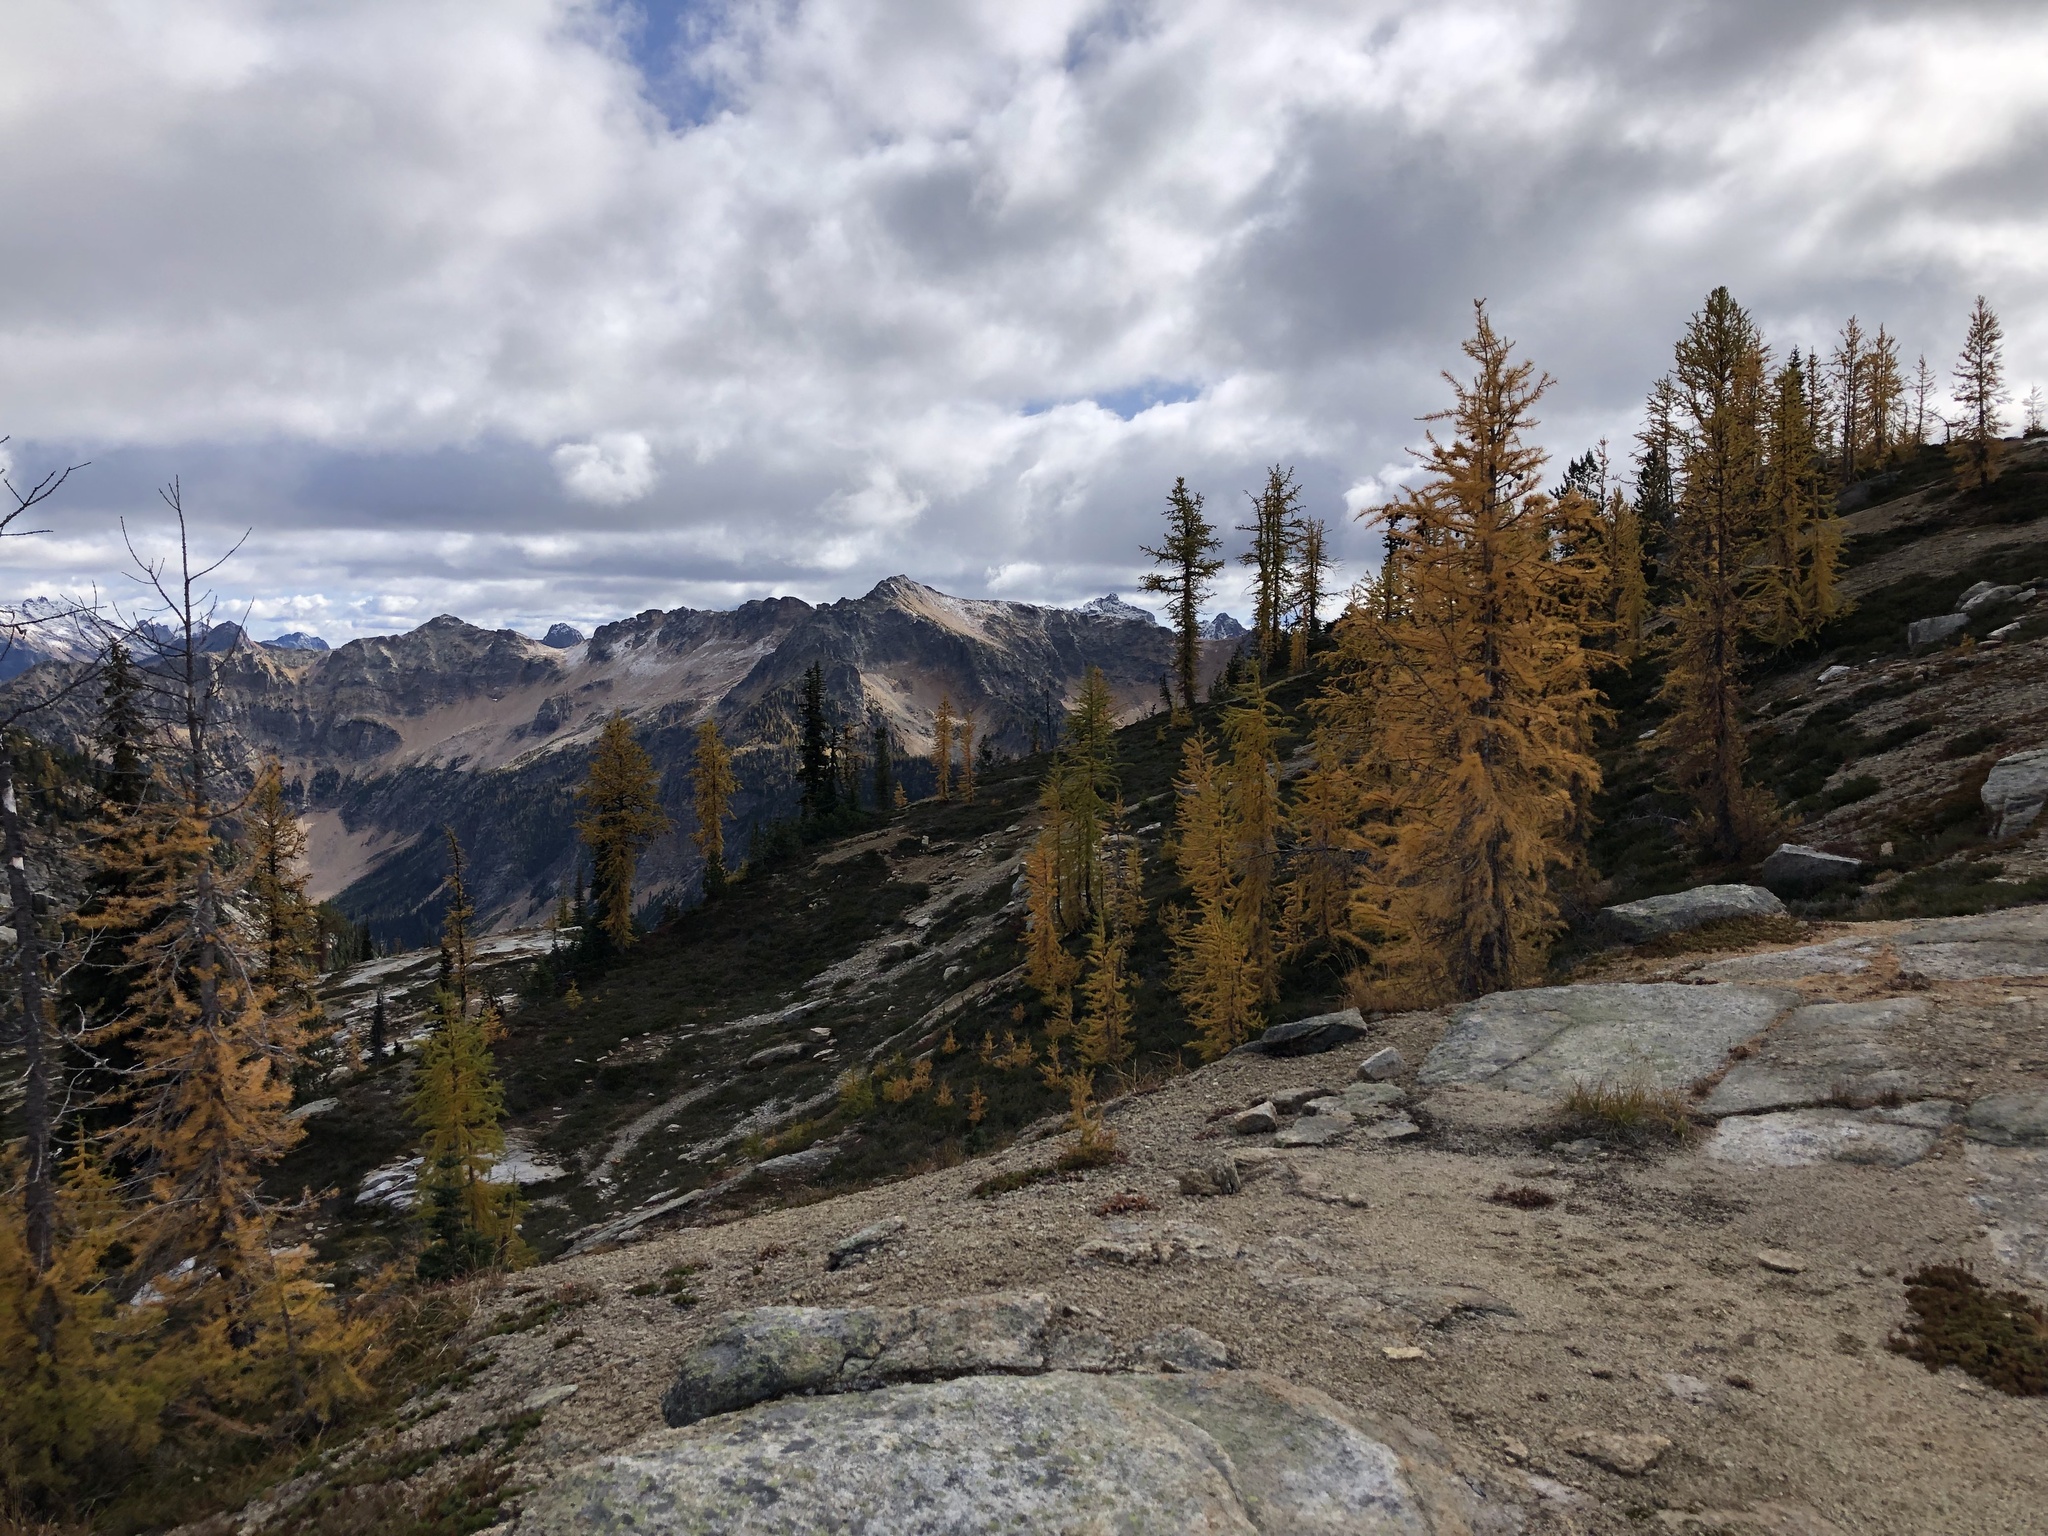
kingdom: Plantae
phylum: Tracheophyta
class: Pinopsida
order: Pinales
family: Pinaceae
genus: Larix
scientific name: Larix lyallii
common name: Alpine larch
